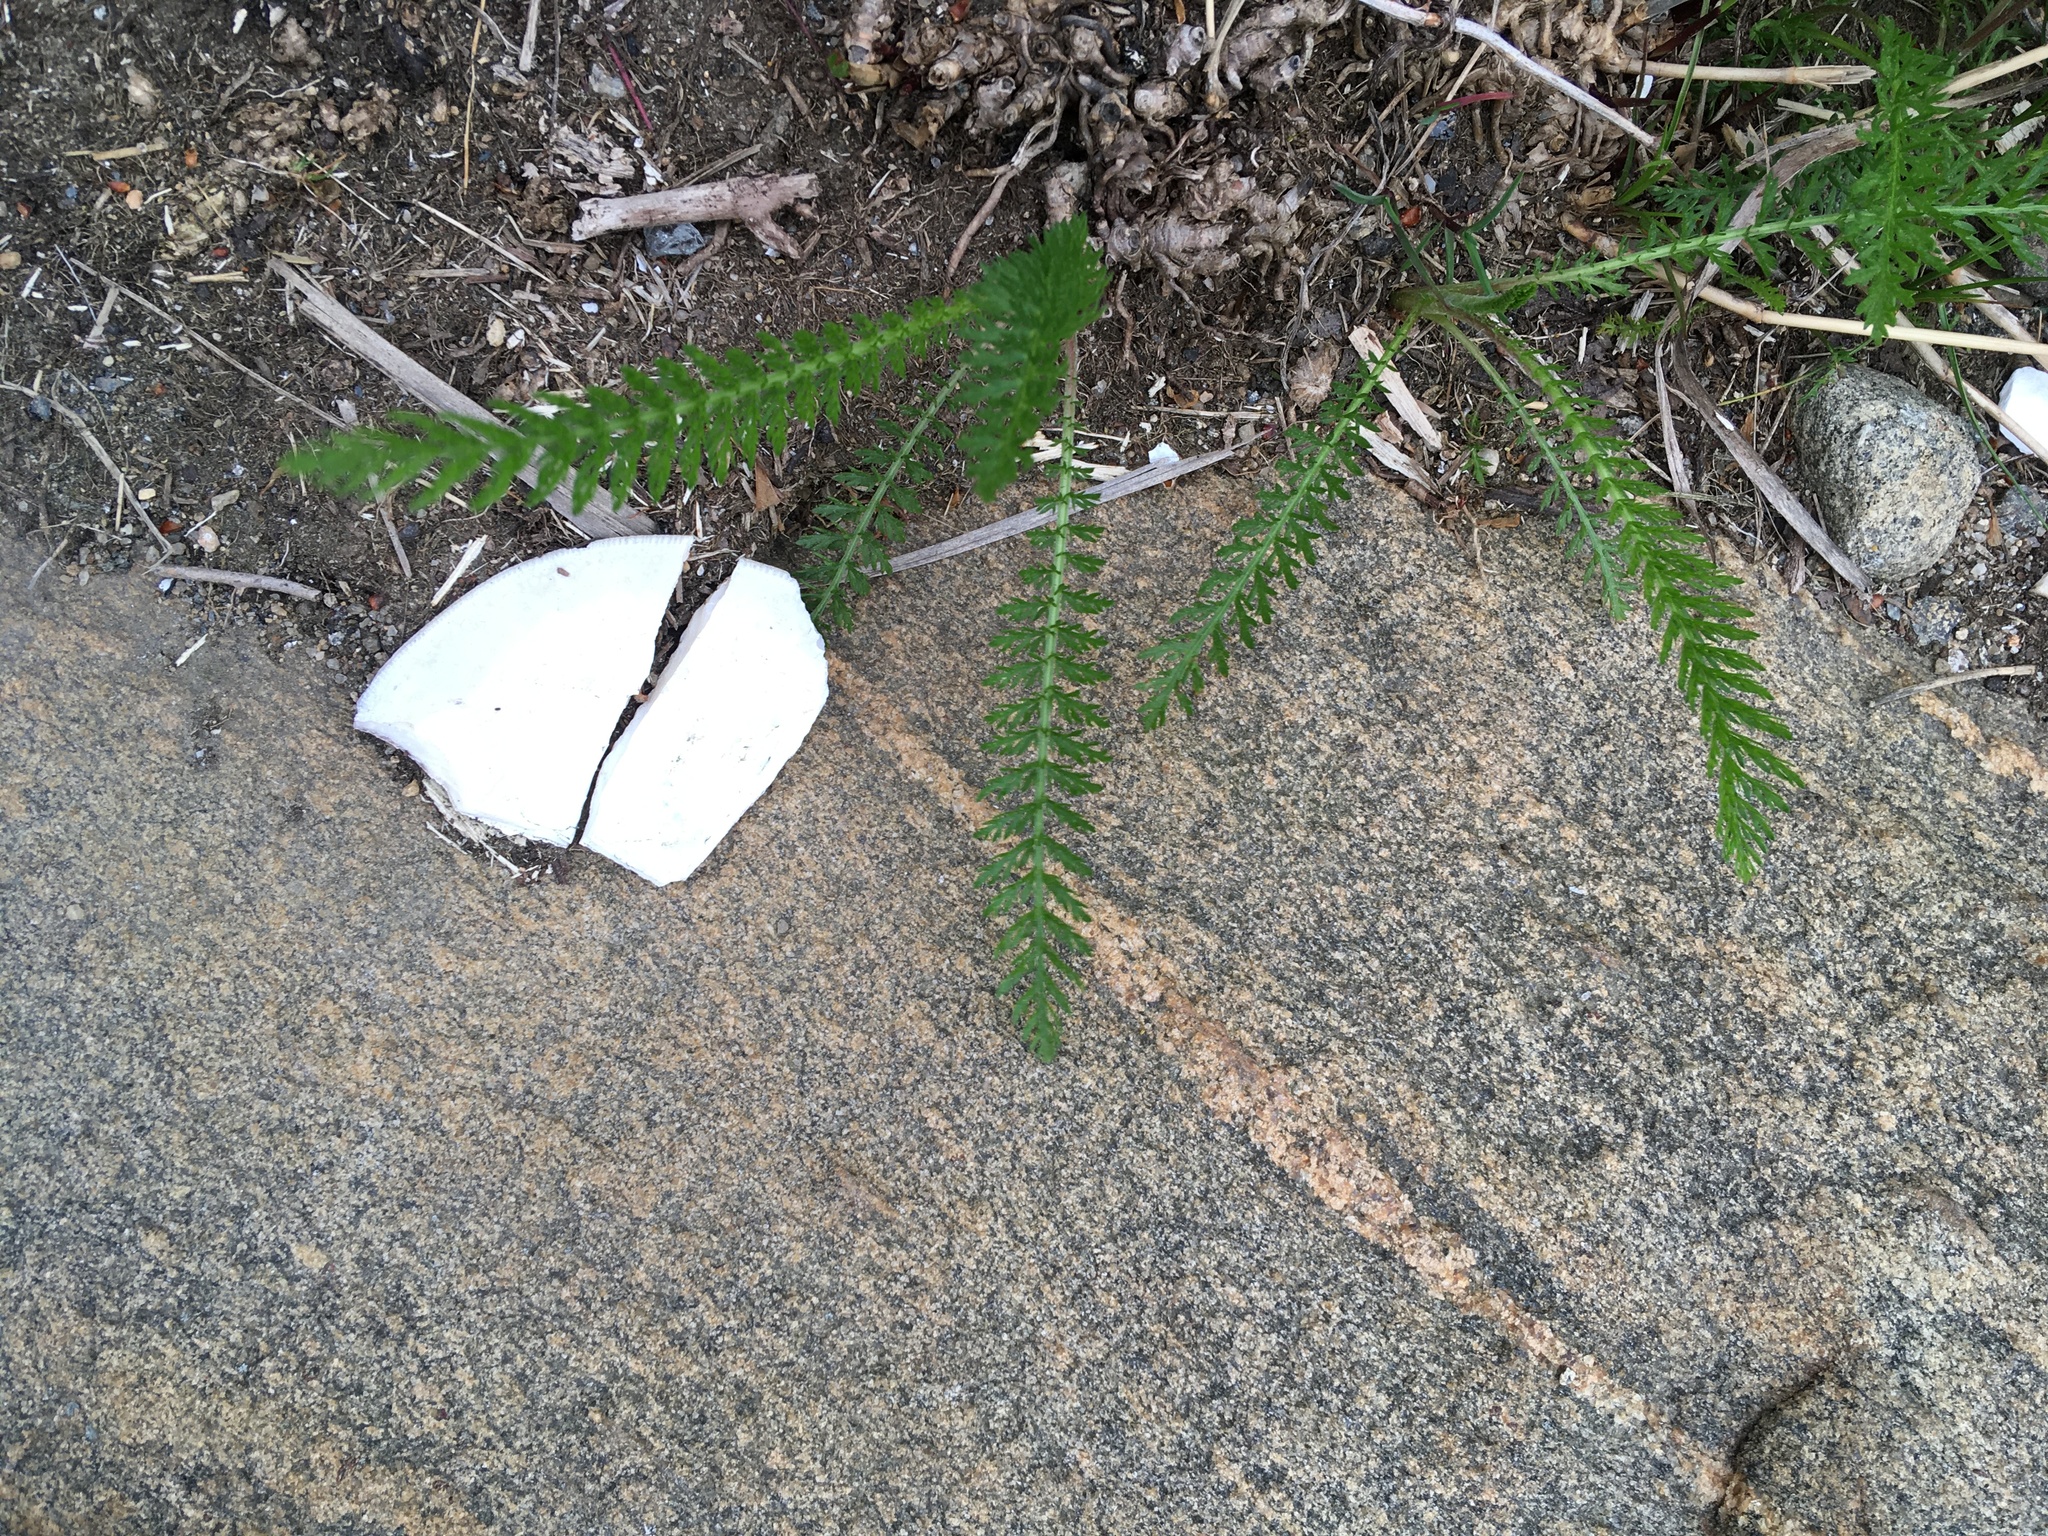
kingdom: Plantae
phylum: Tracheophyta
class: Magnoliopsida
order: Asterales
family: Asteraceae
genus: Achillea
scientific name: Achillea millefolium
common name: Yarrow
